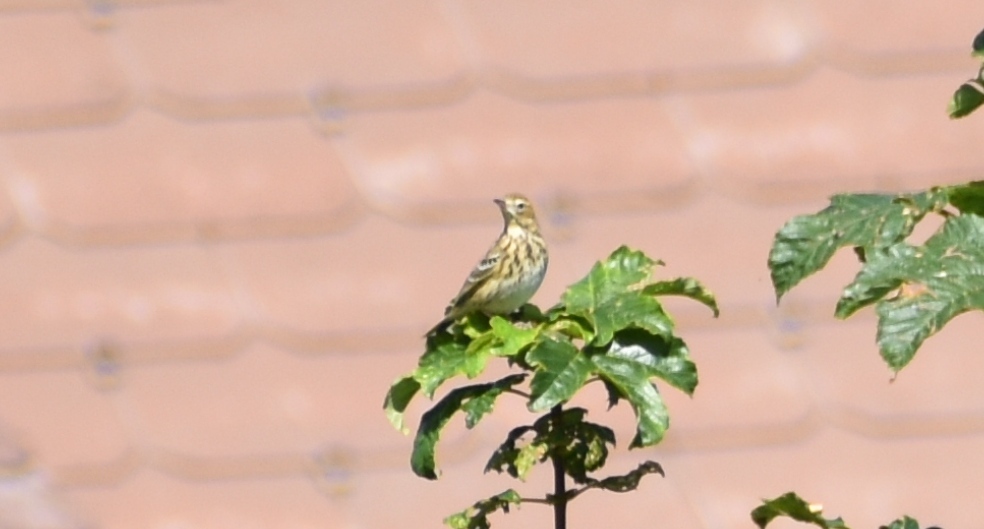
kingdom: Animalia
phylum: Chordata
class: Aves
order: Passeriformes
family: Motacillidae
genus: Anthus
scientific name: Anthus trivialis
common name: Tree pipit
